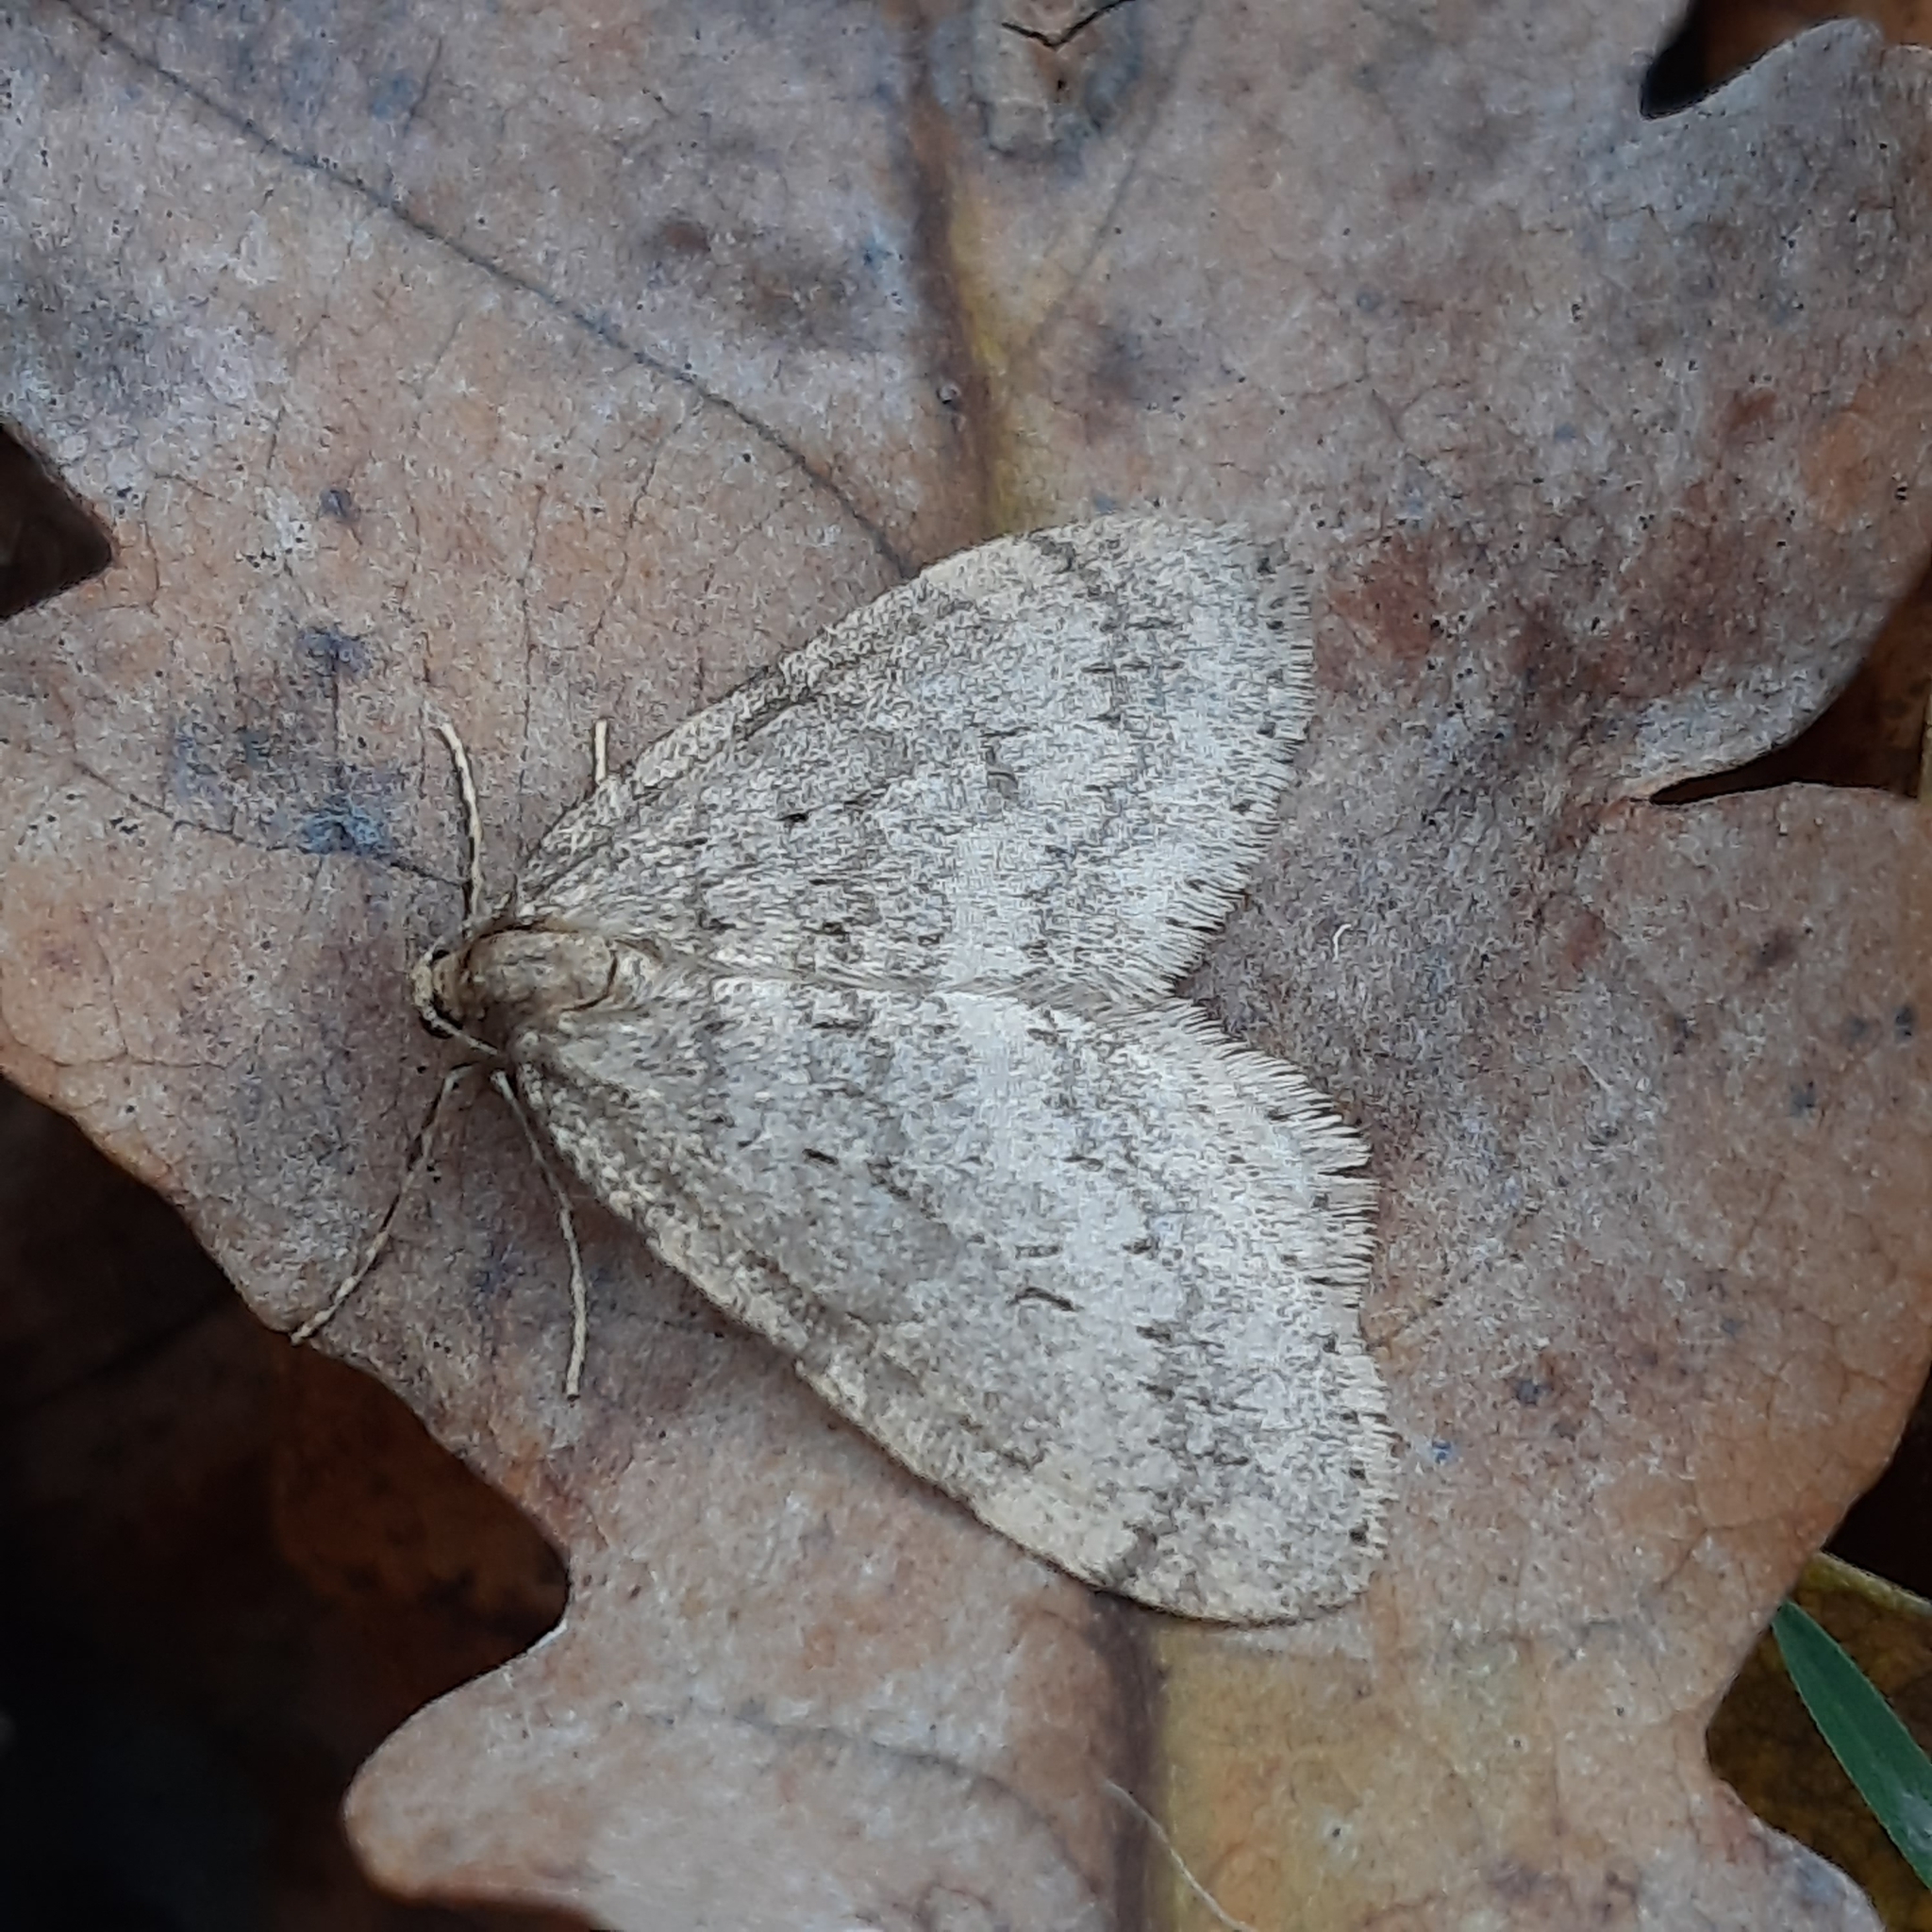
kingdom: Animalia
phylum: Arthropoda
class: Insecta
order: Lepidoptera
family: Geometridae
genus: Operophtera
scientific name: Operophtera brumata
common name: Winter moth
